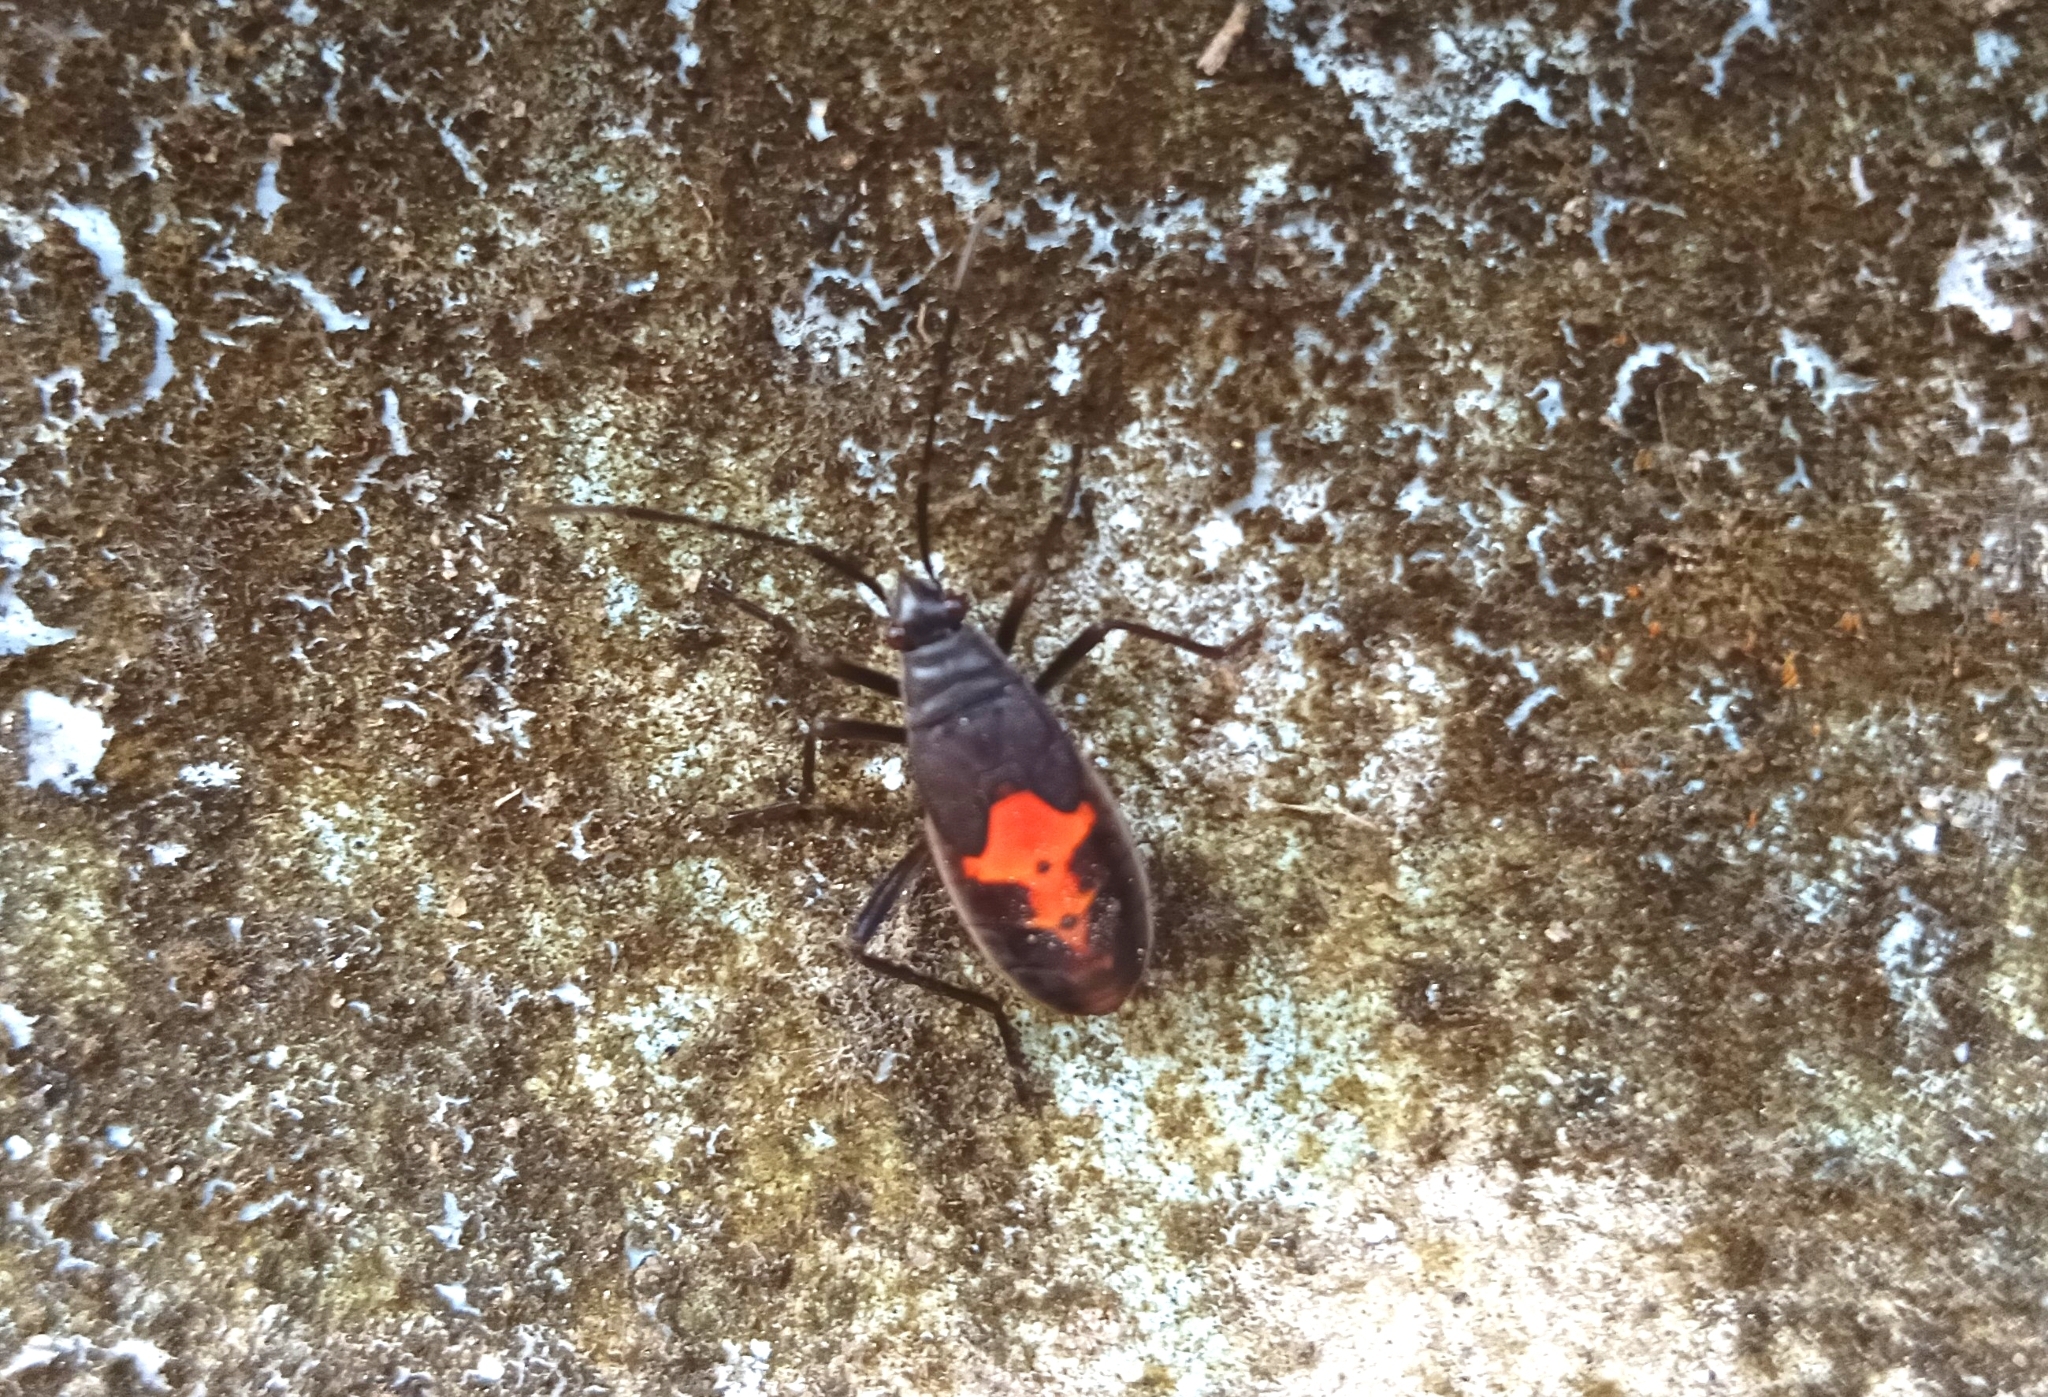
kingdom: Animalia
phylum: Arthropoda
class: Insecta
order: Hemiptera
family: Pyrrhocoridae
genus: Melamphaus
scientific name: Melamphaus
